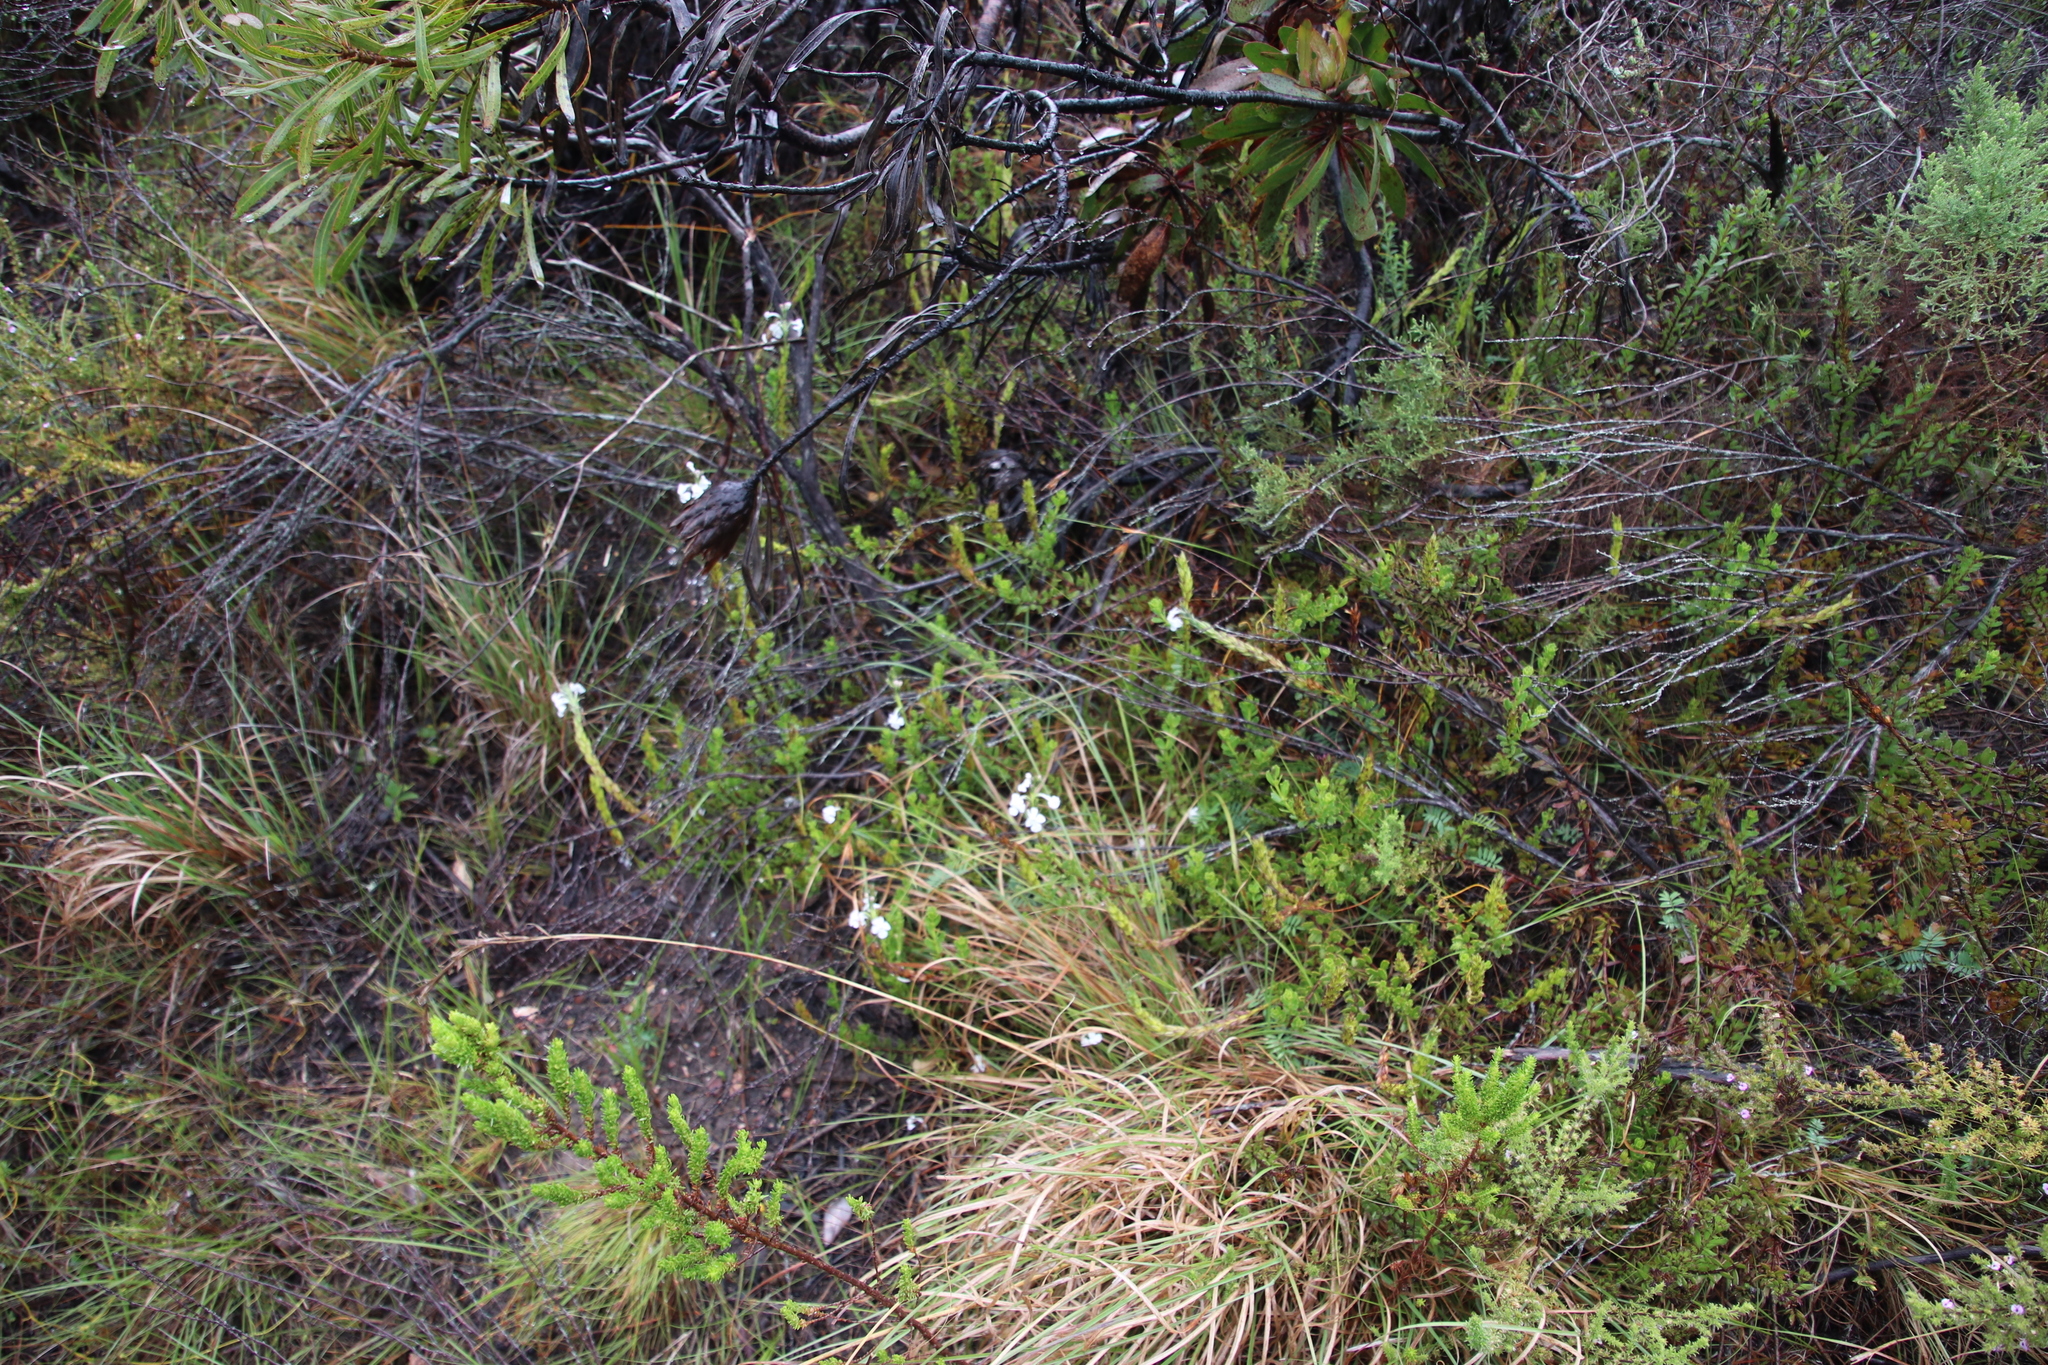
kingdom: Plantae
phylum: Tracheophyta
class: Magnoliopsida
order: Lamiales
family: Verbenaceae
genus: Chascanum
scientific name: Chascanum cernuum
